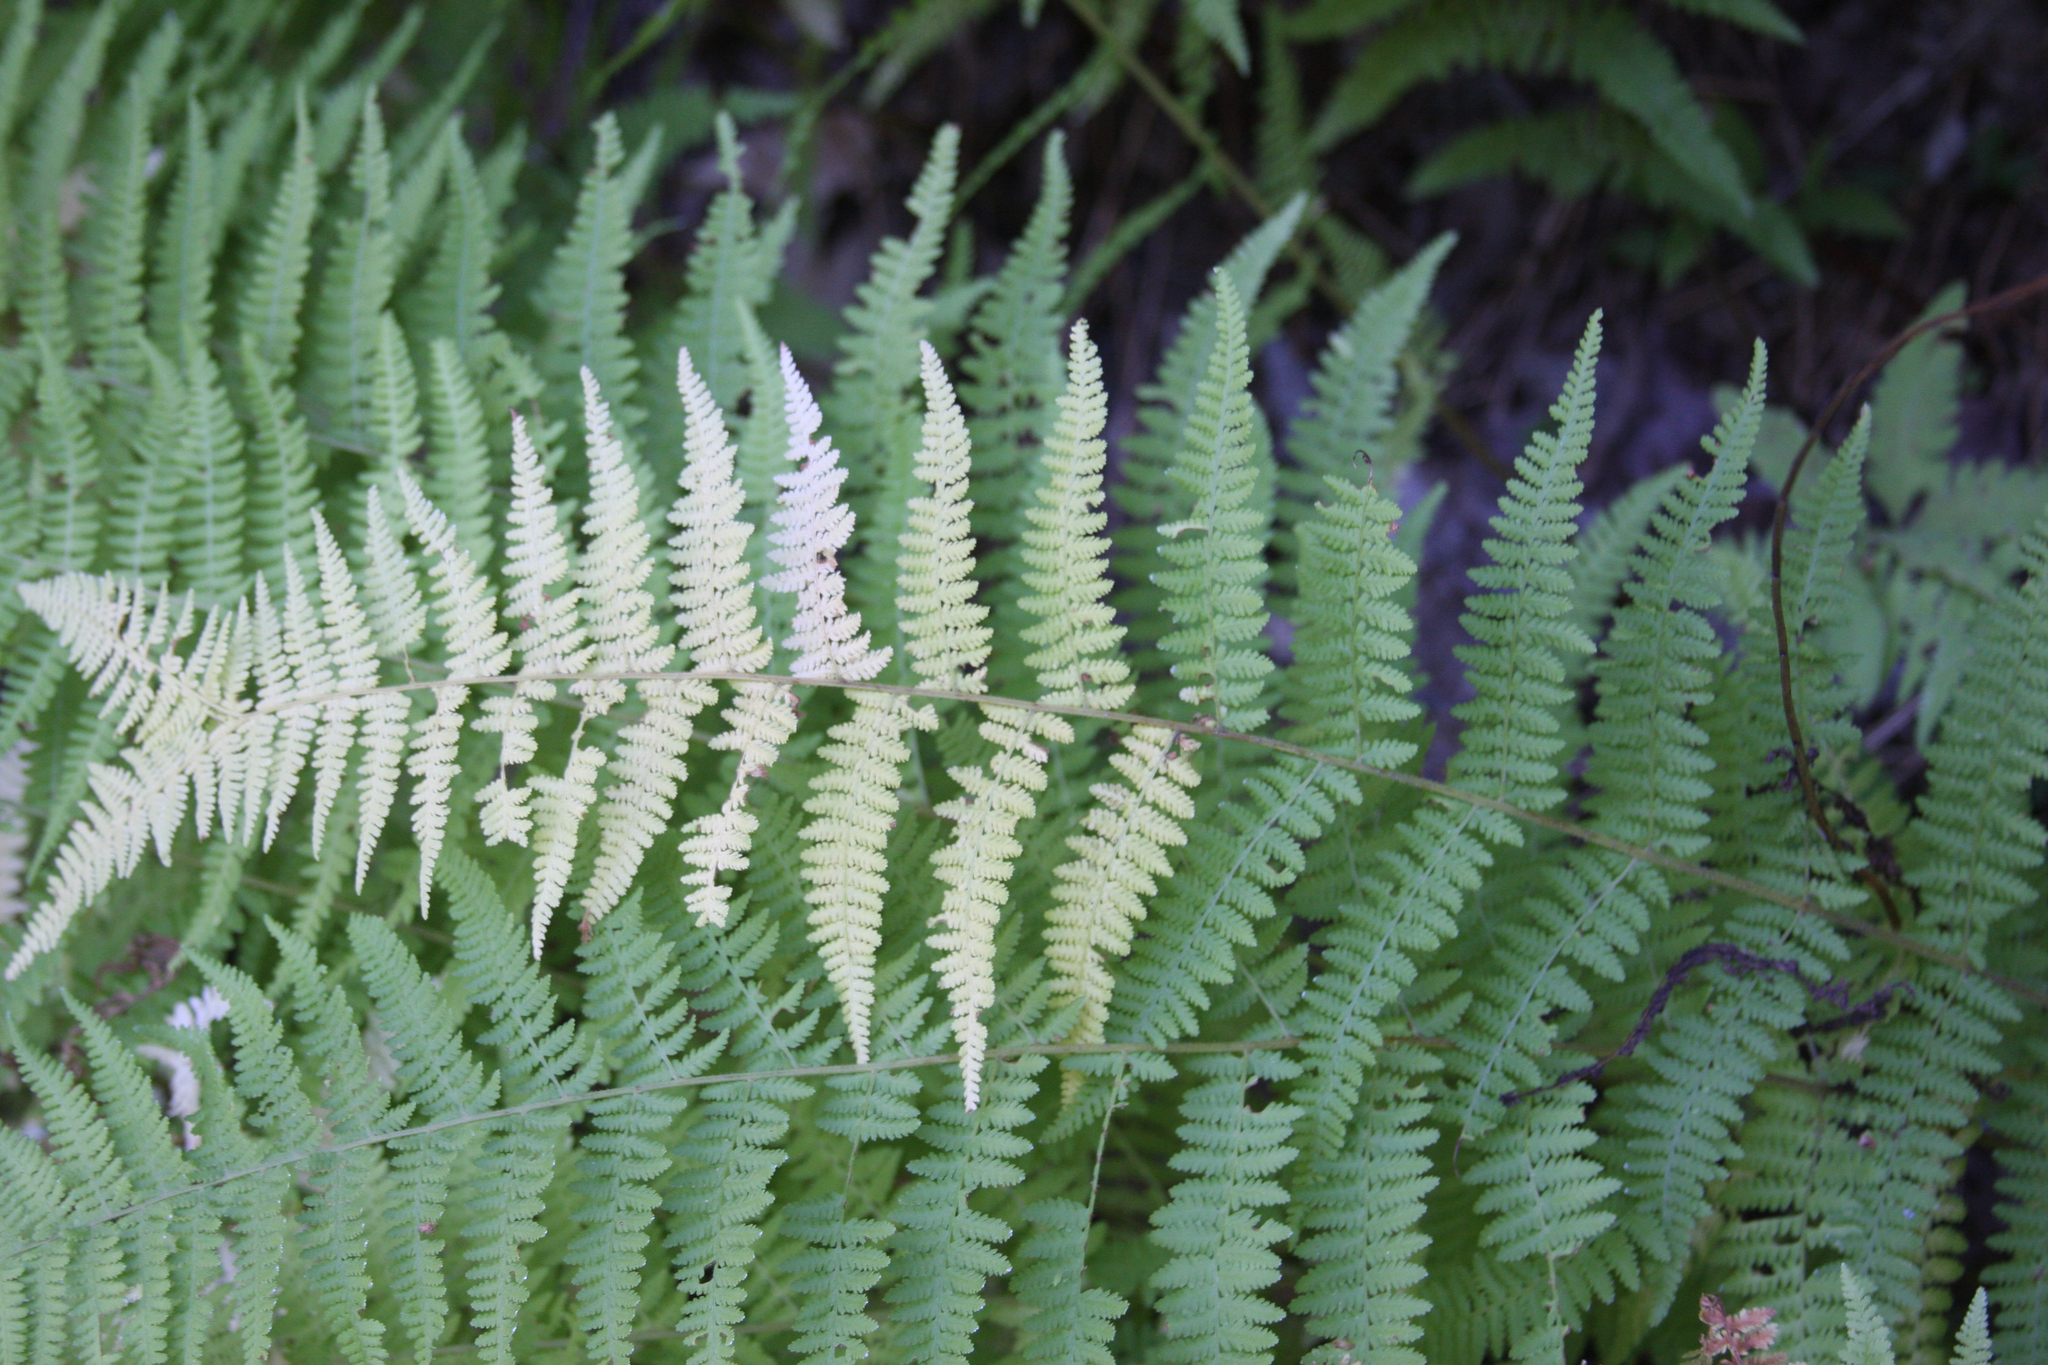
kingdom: Plantae
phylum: Tracheophyta
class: Polypodiopsida
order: Polypodiales
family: Dennstaedtiaceae
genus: Sitobolium
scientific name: Sitobolium punctilobum
